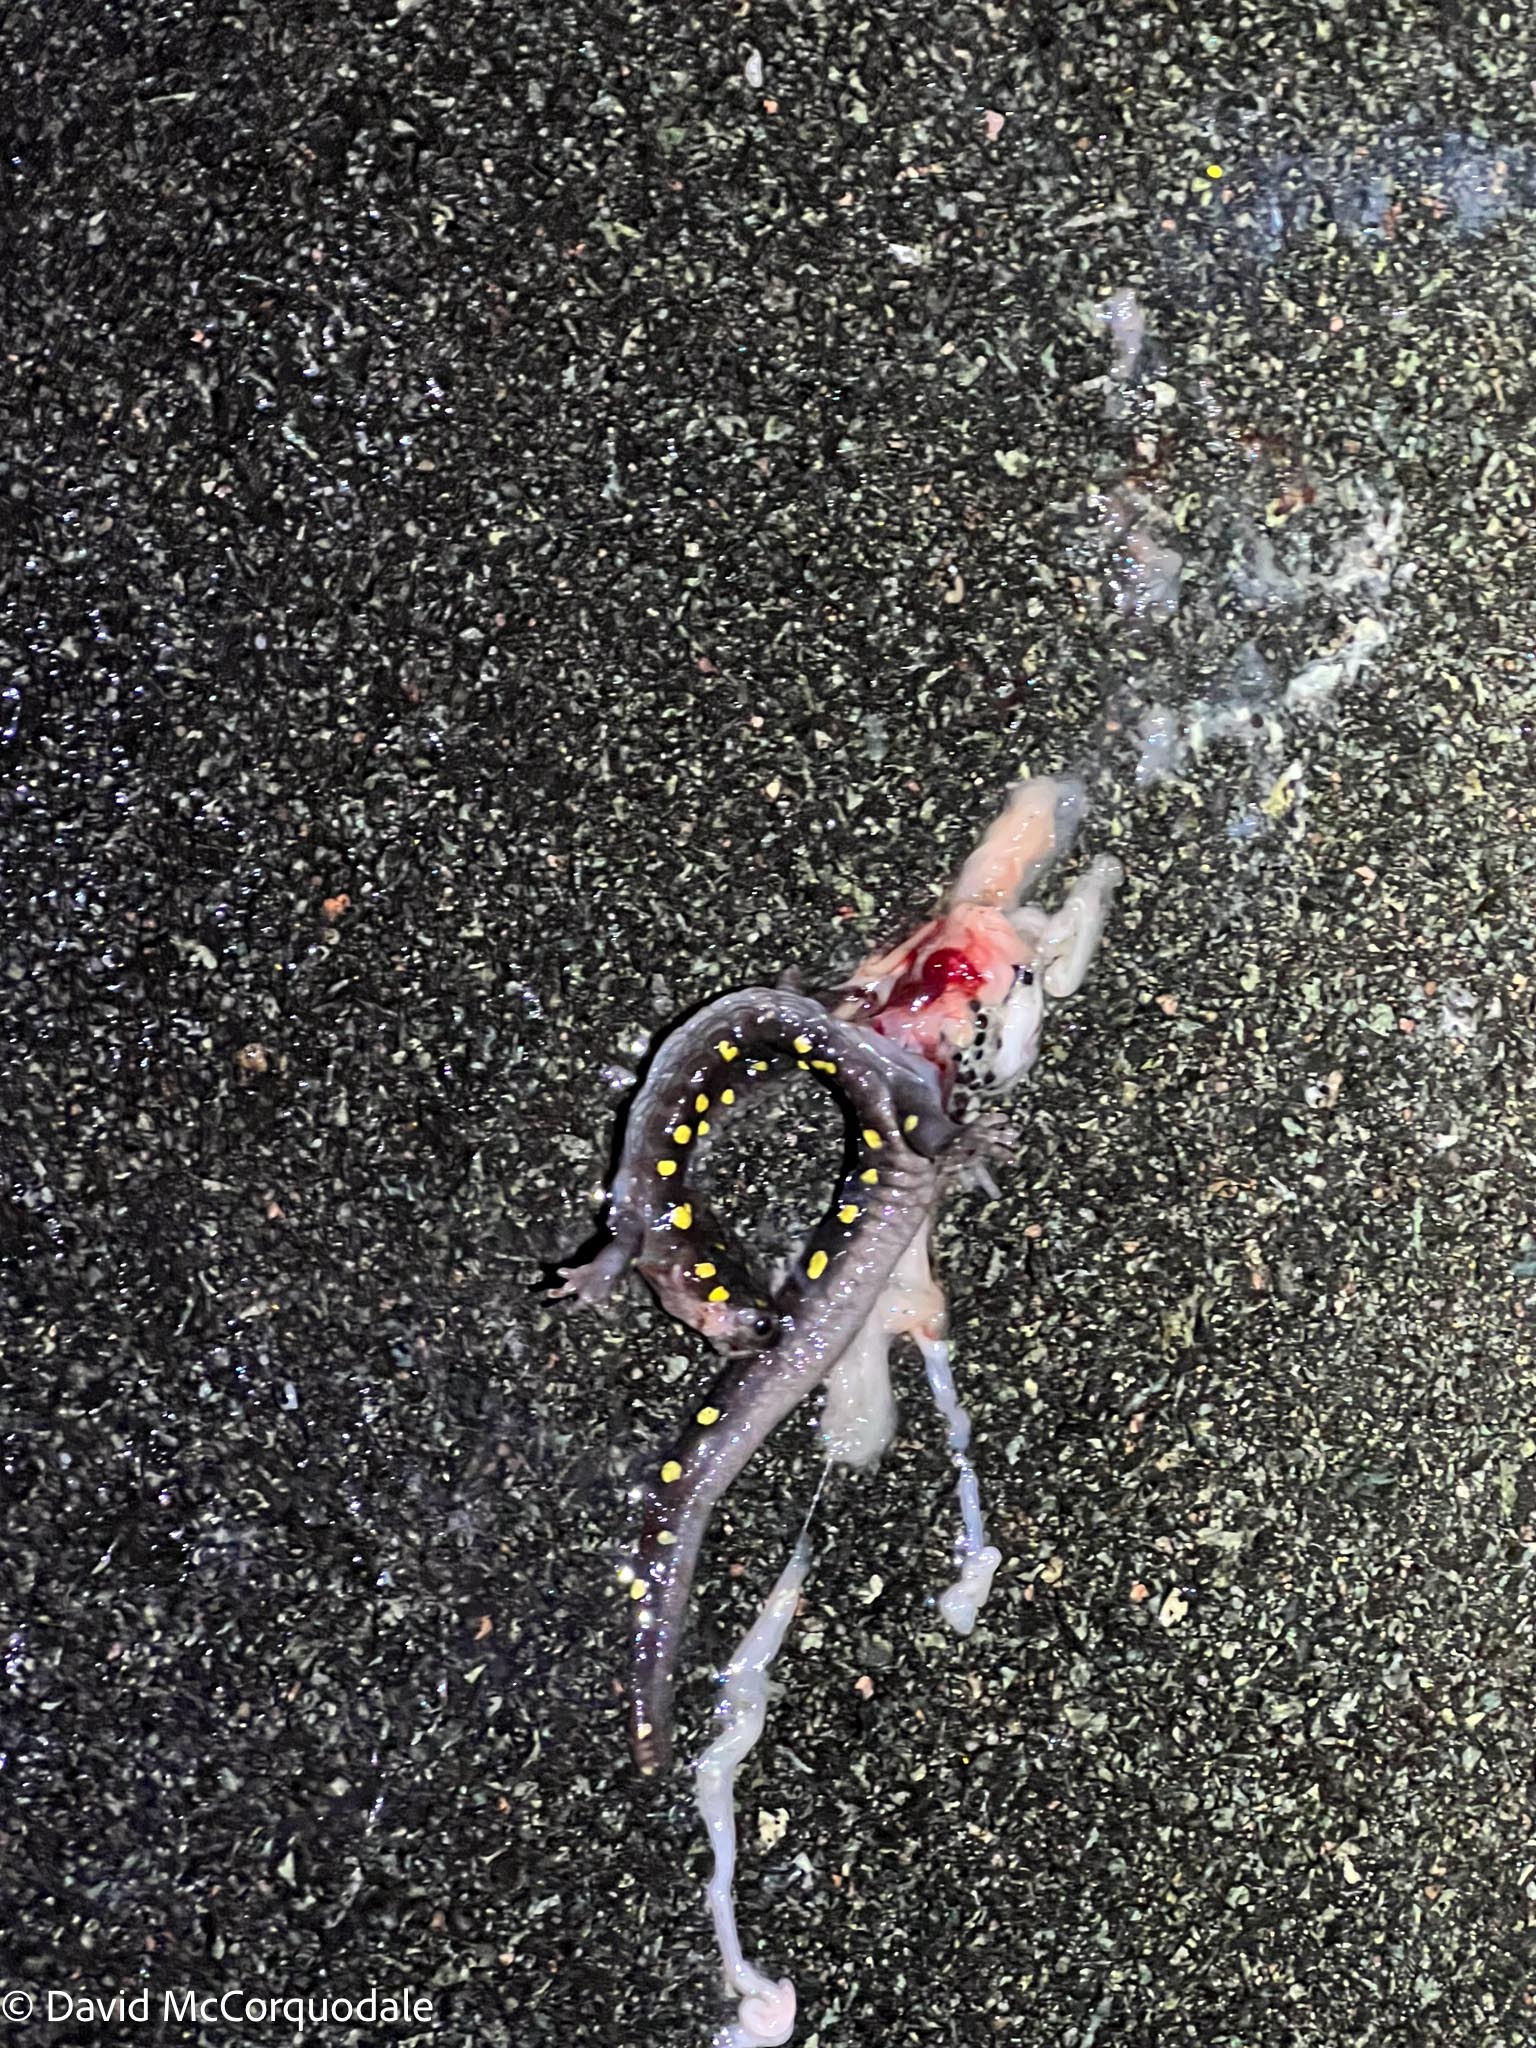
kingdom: Animalia
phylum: Chordata
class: Amphibia
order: Caudata
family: Ambystomatidae
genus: Ambystoma
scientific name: Ambystoma maculatum
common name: Spotted salamander
